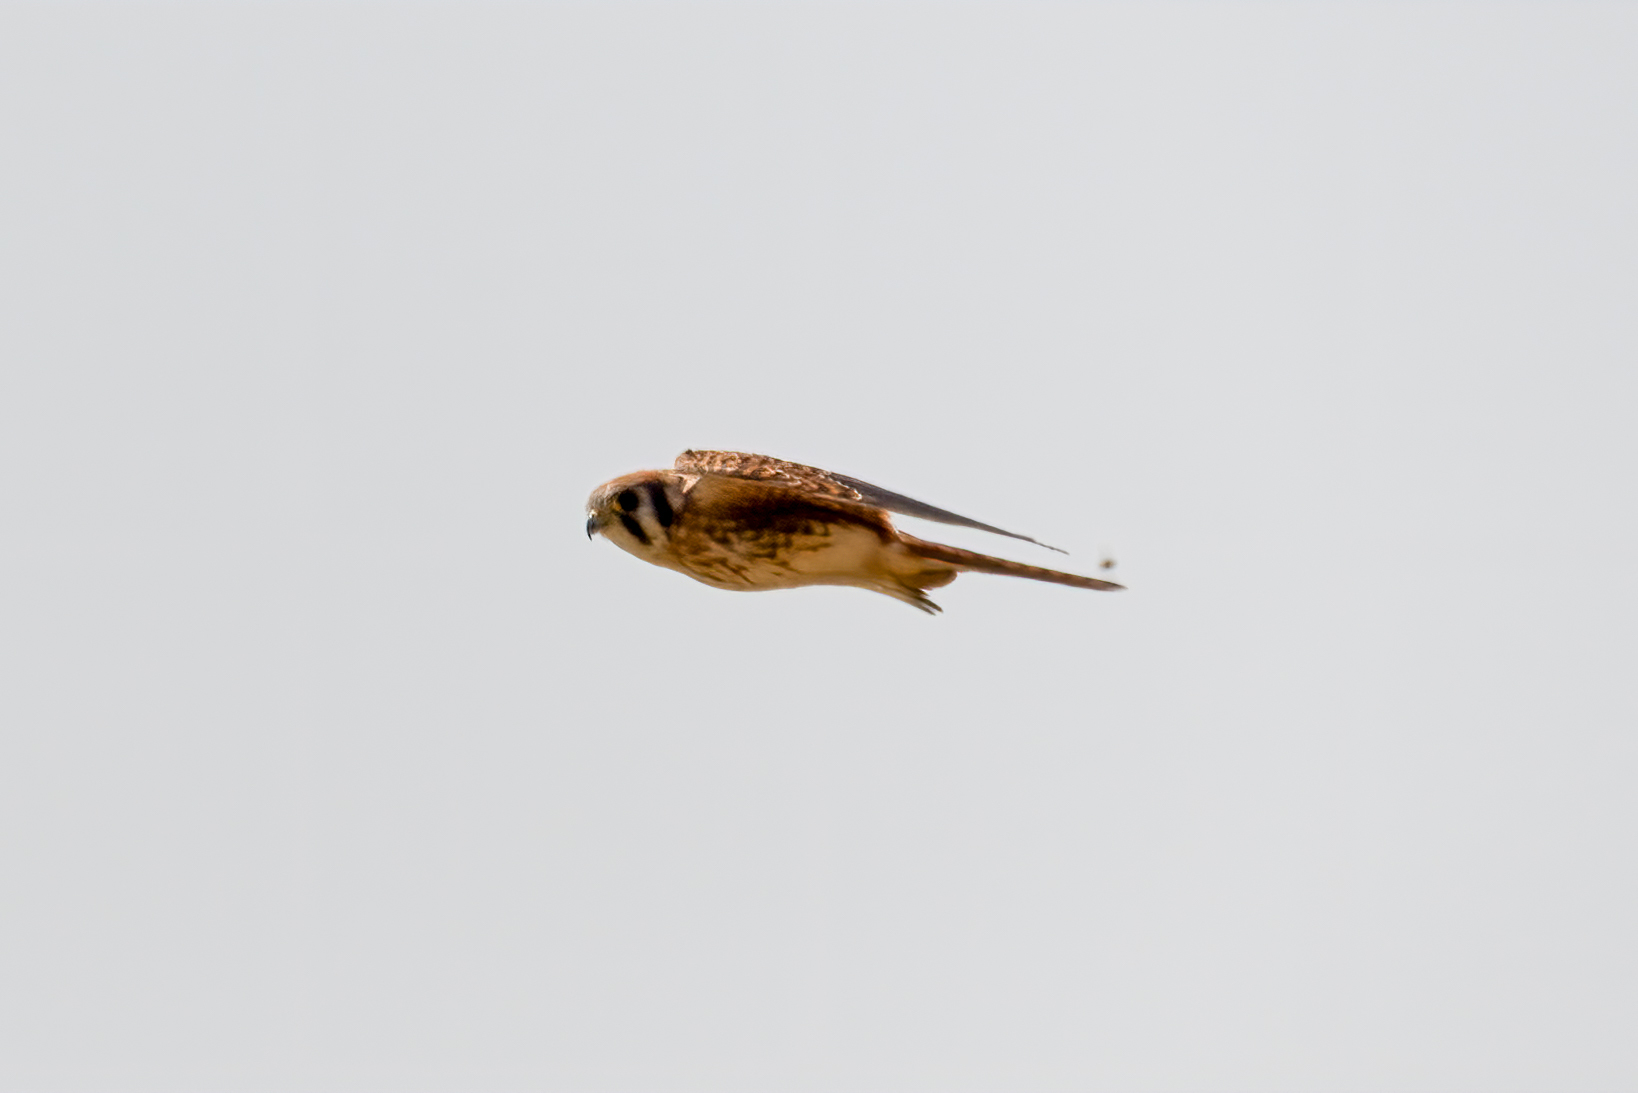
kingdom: Animalia
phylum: Chordata
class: Aves
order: Falconiformes
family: Falconidae
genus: Falco
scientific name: Falco sparverius
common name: American kestrel
